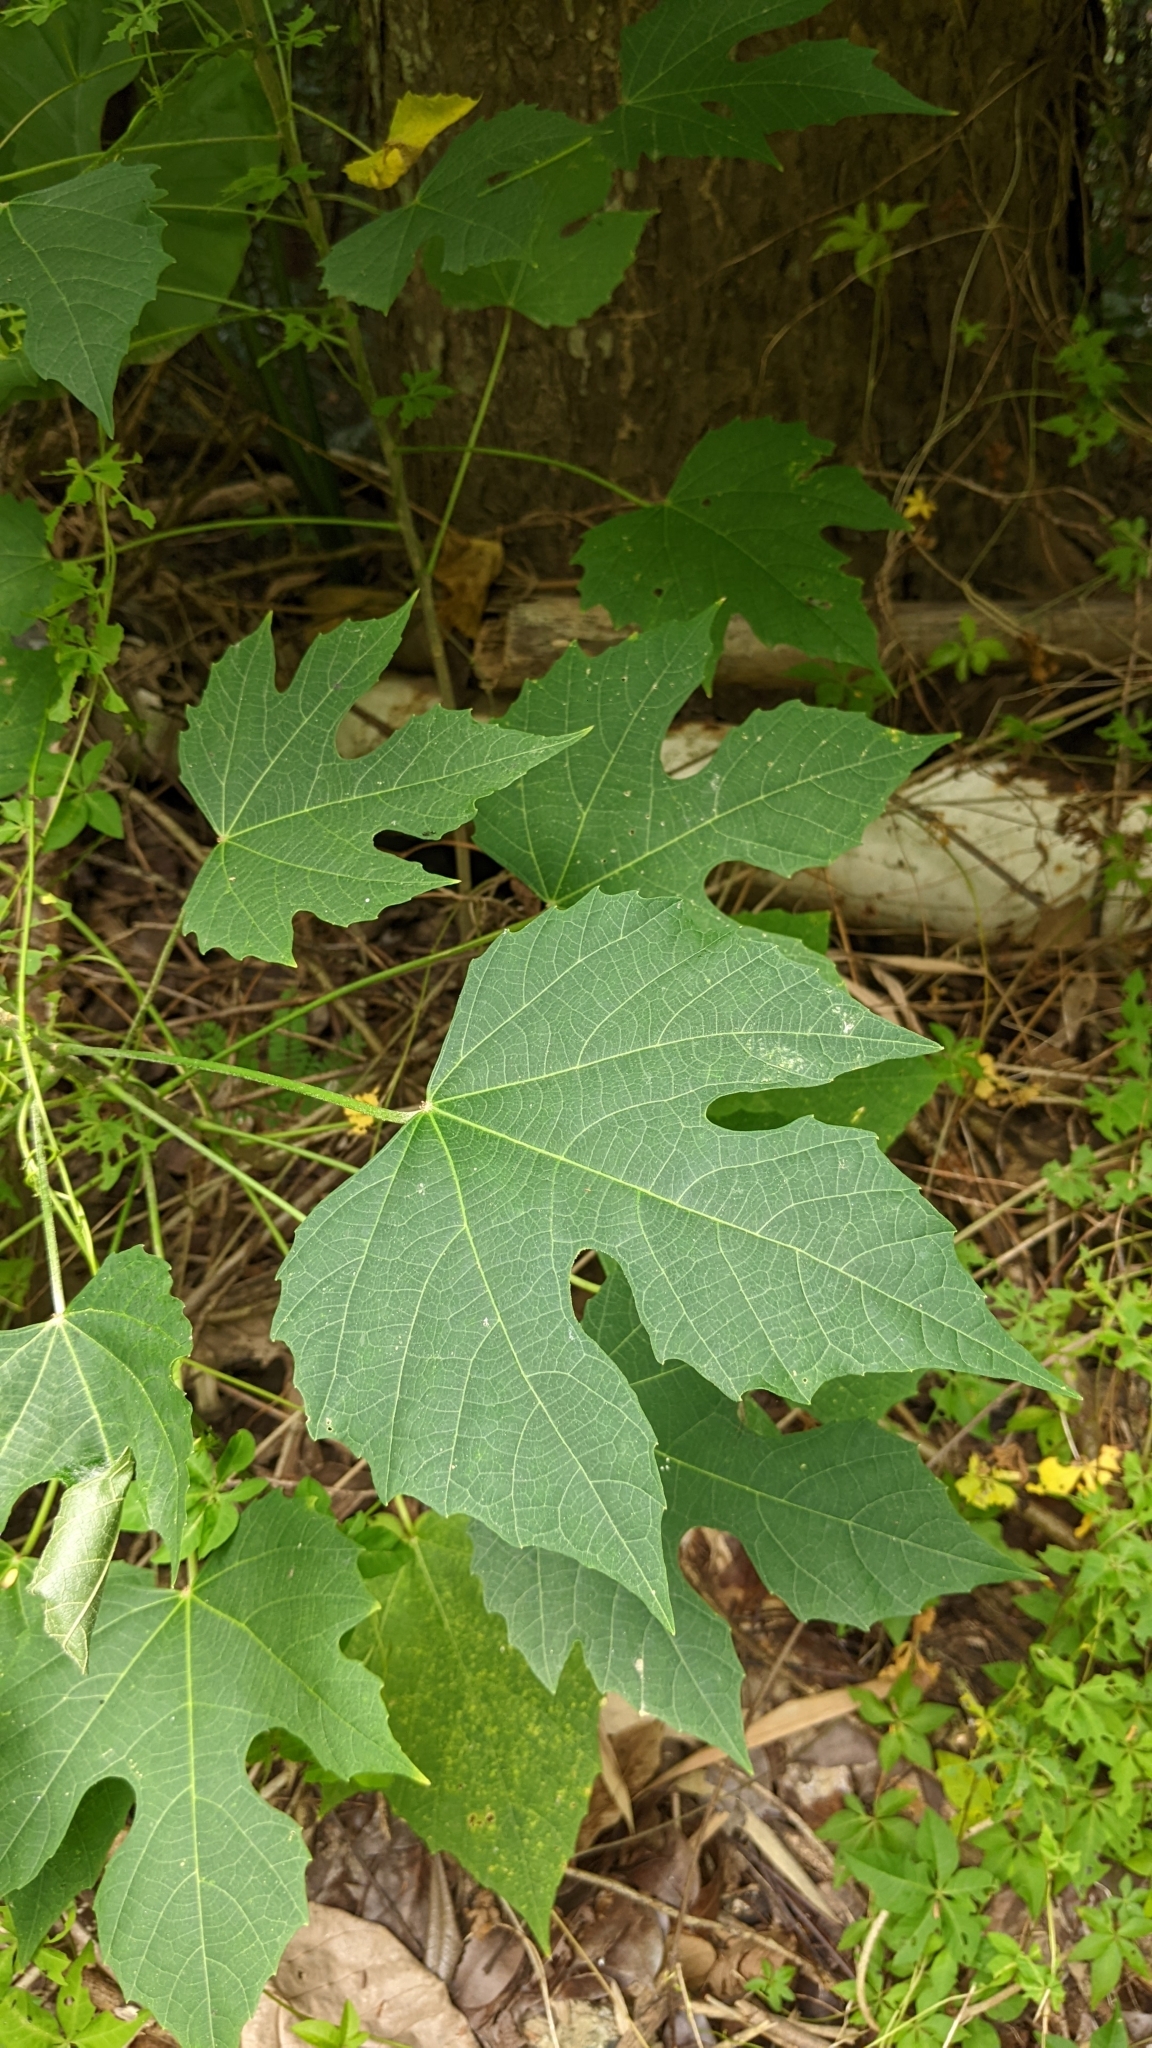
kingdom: Plantae
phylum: Tracheophyta
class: Magnoliopsida
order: Malpighiales
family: Euphorbiaceae
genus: Melanolepis
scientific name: Melanolepis multiglandulosa
